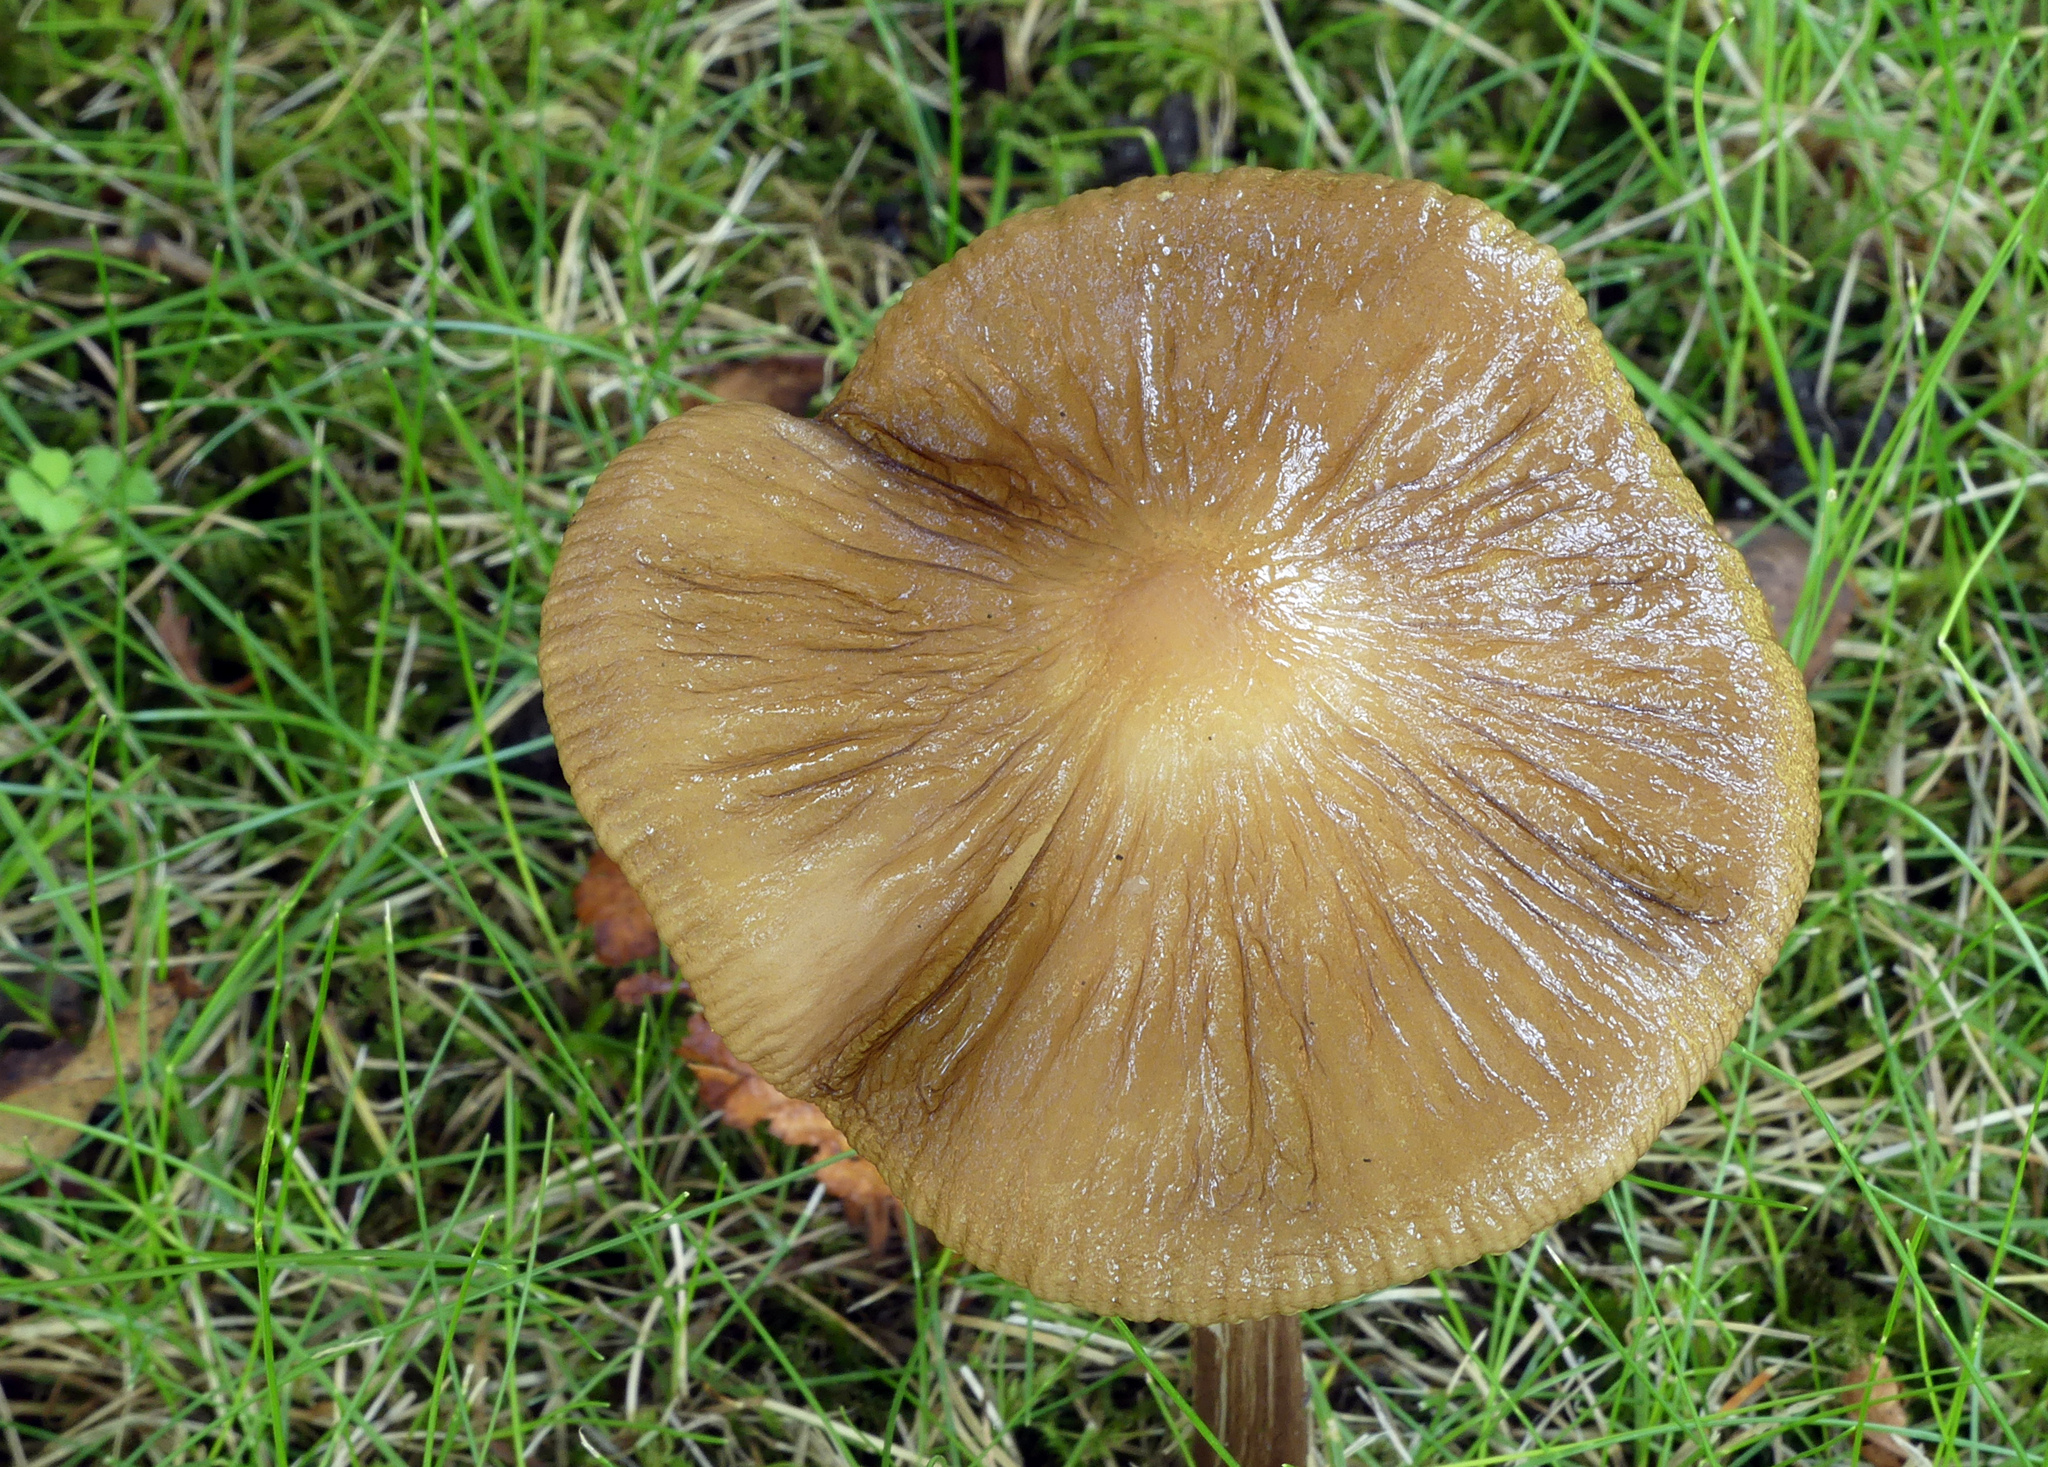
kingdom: Fungi
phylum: Basidiomycota
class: Agaricomycetes
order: Agaricales
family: Physalacriaceae
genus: Hymenopellis
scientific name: Hymenopellis radicata
